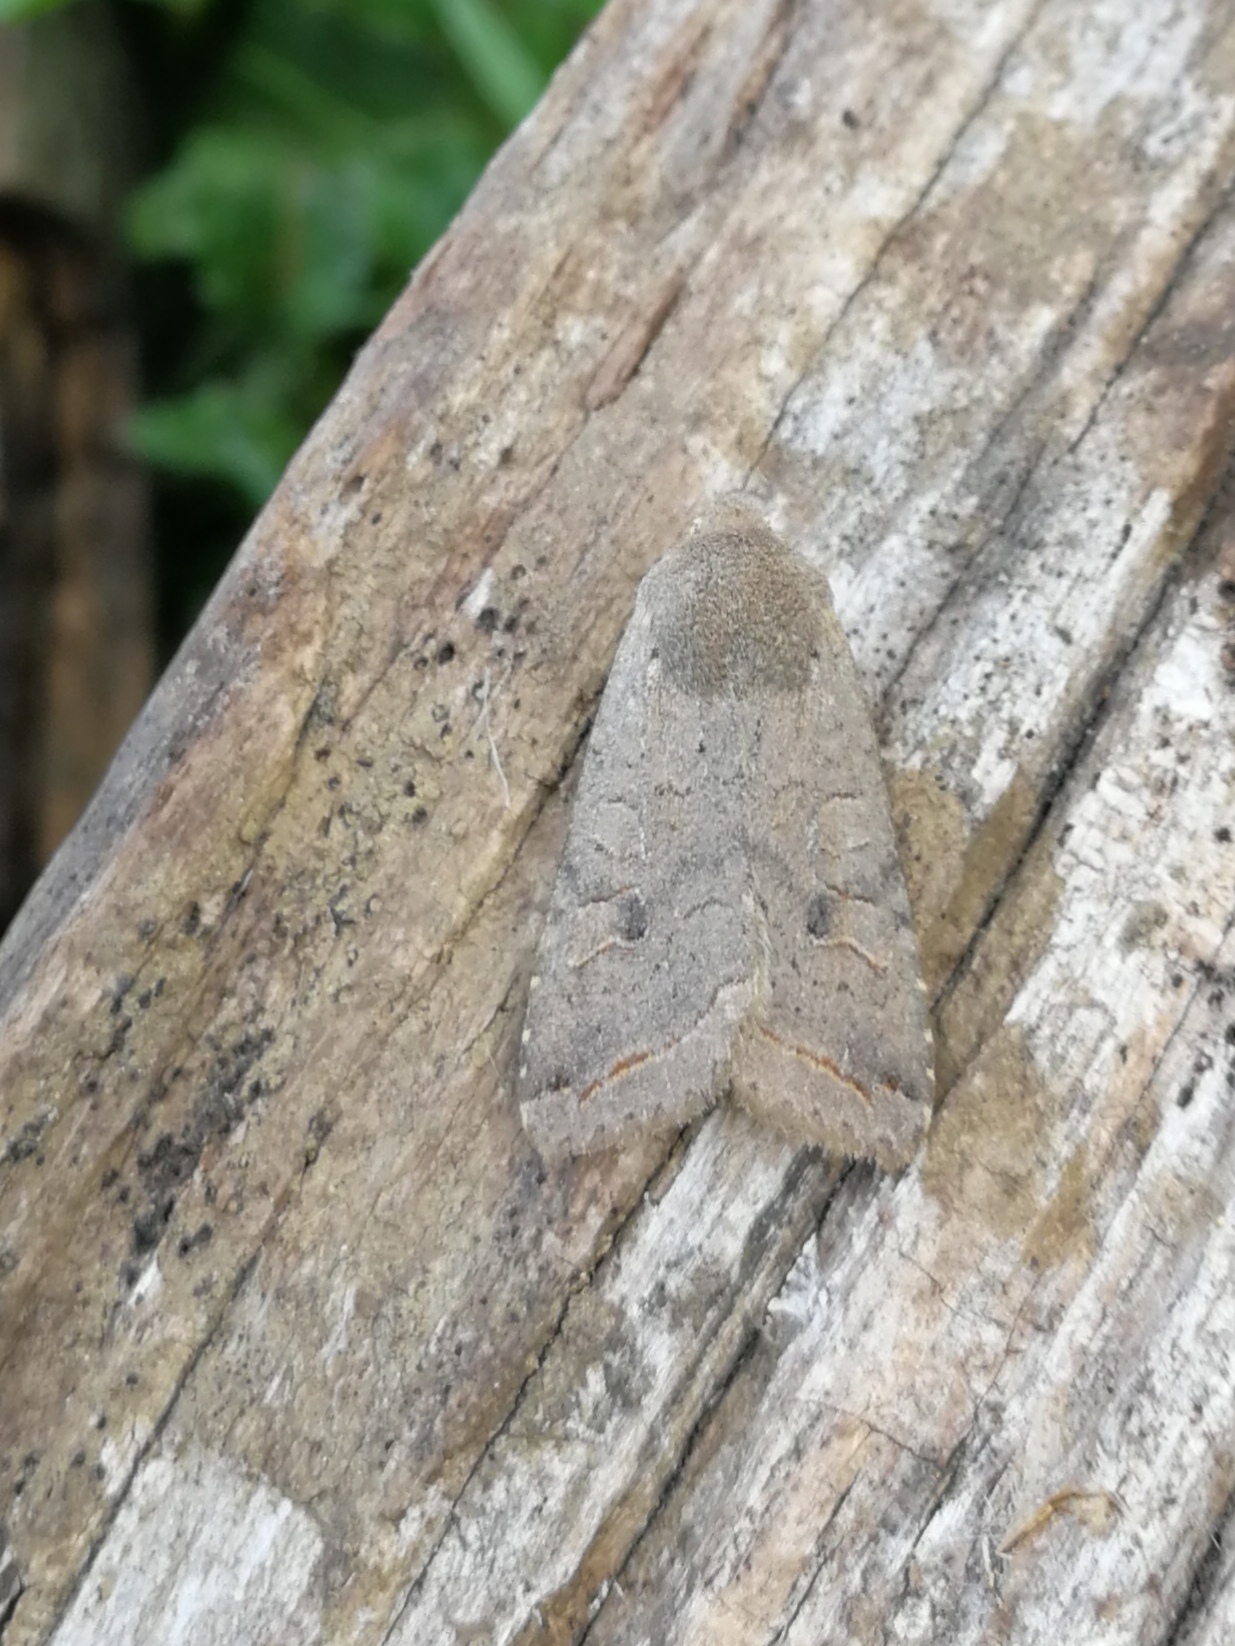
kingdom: Animalia
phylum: Arthropoda
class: Insecta
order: Lepidoptera
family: Noctuidae
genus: Agrochola
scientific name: Agrochola lota
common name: Red-line quaker
